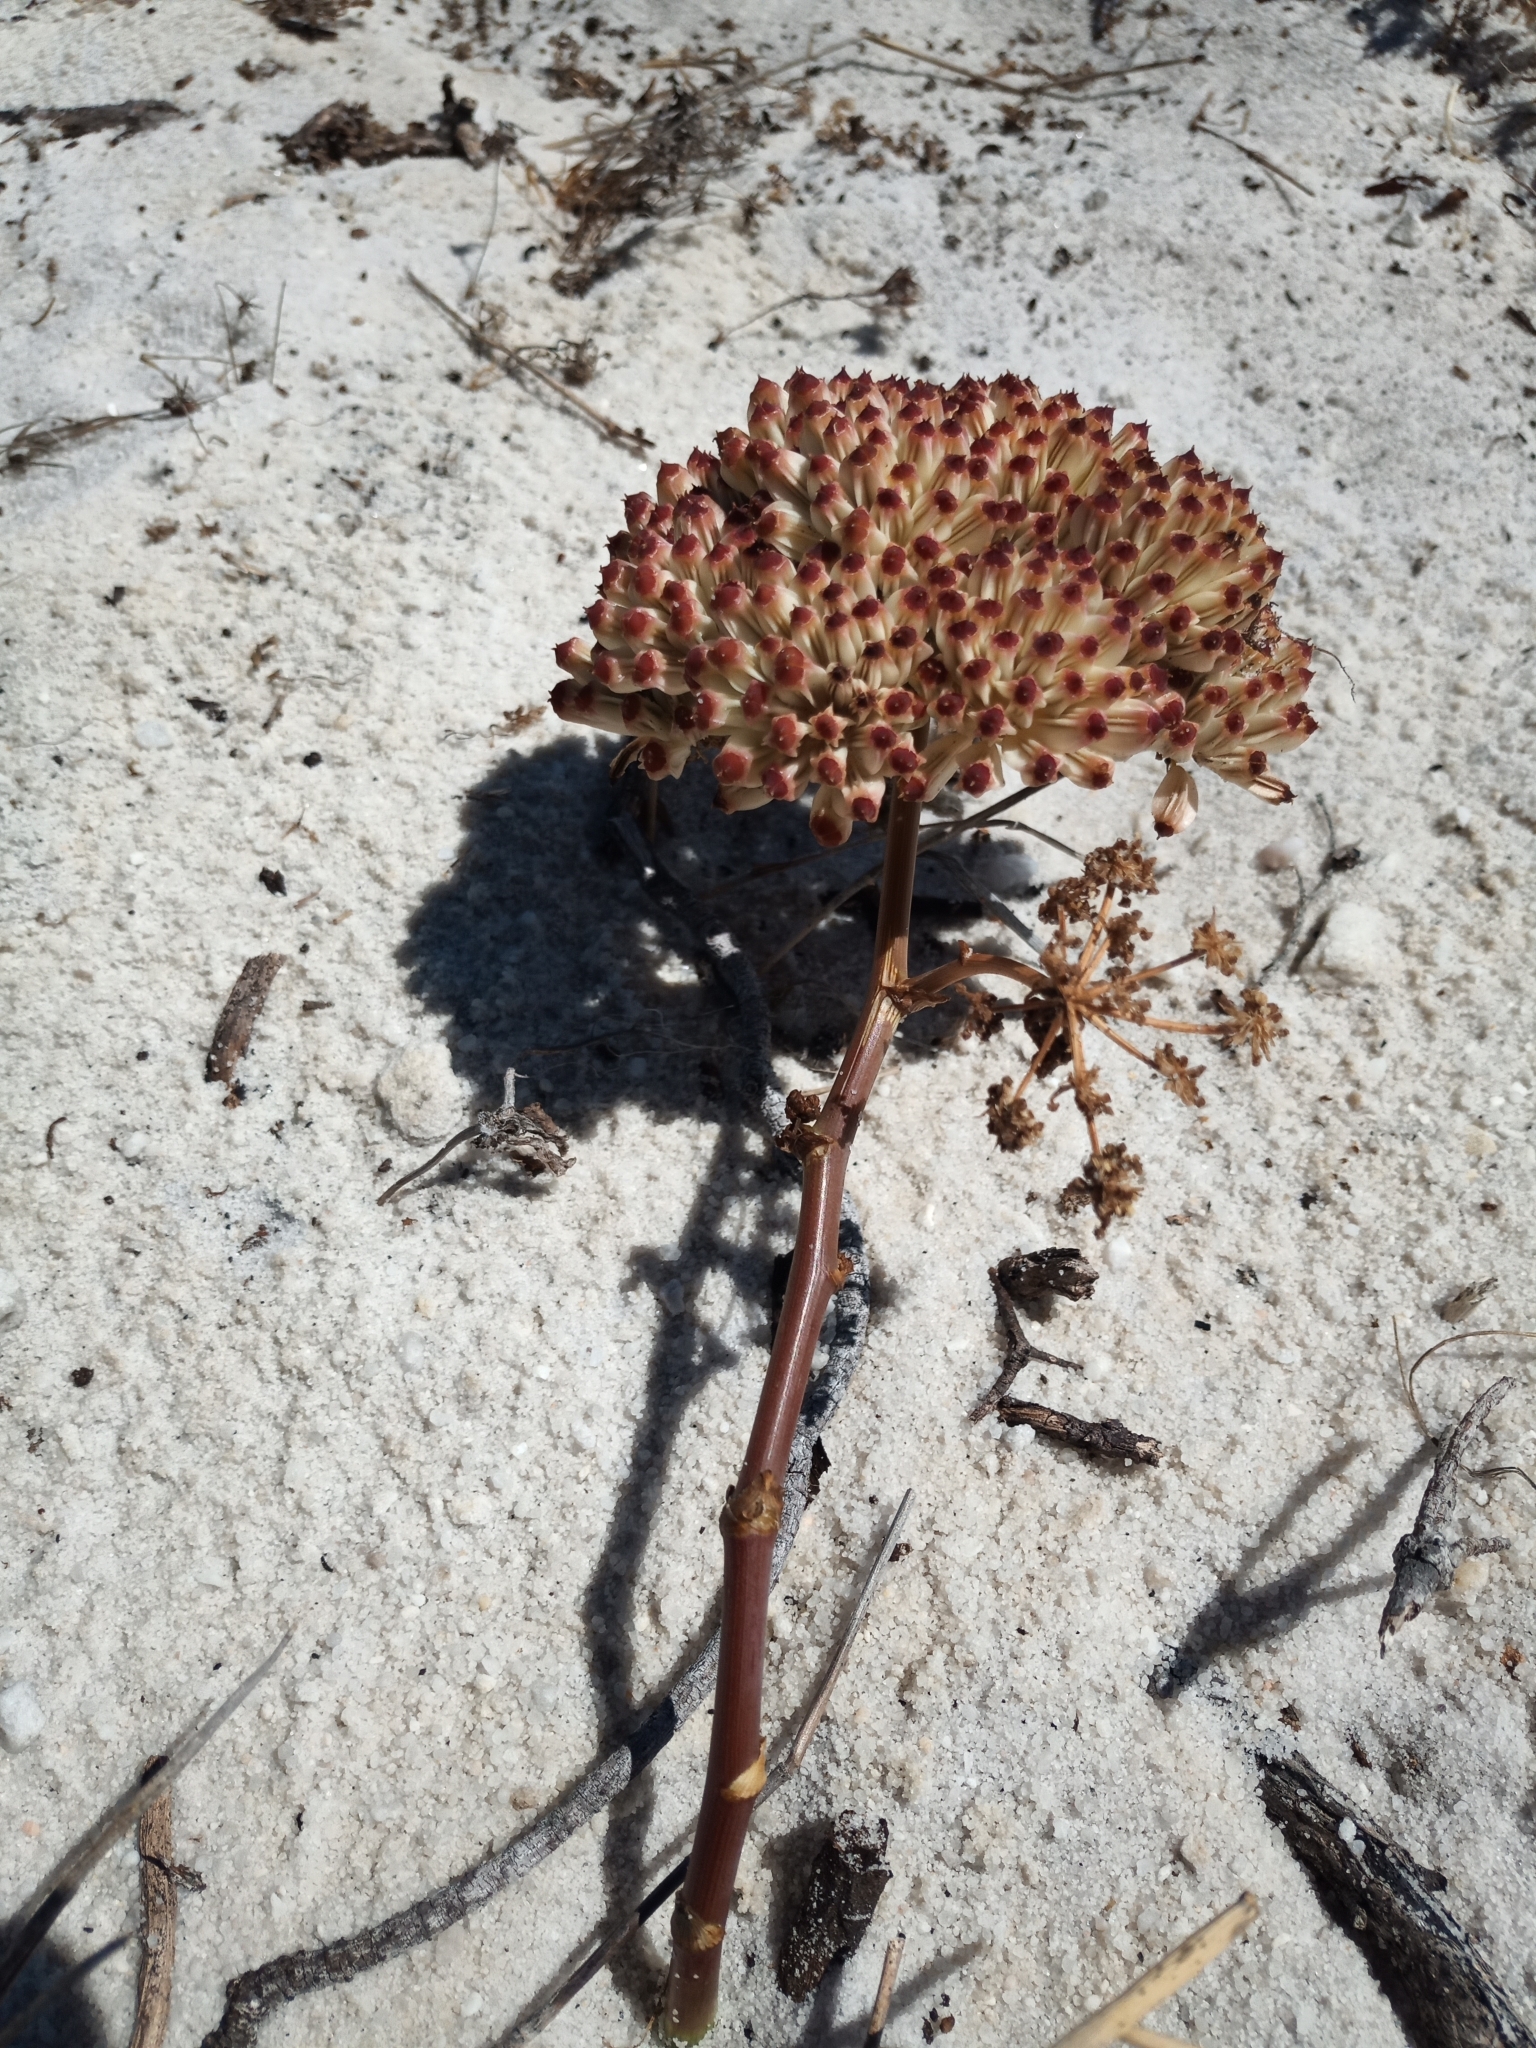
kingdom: Plantae
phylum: Tracheophyta
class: Magnoliopsida
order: Apiales
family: Apiaceae
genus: Annesorhiza
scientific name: Annesorhiza macrocarpa
